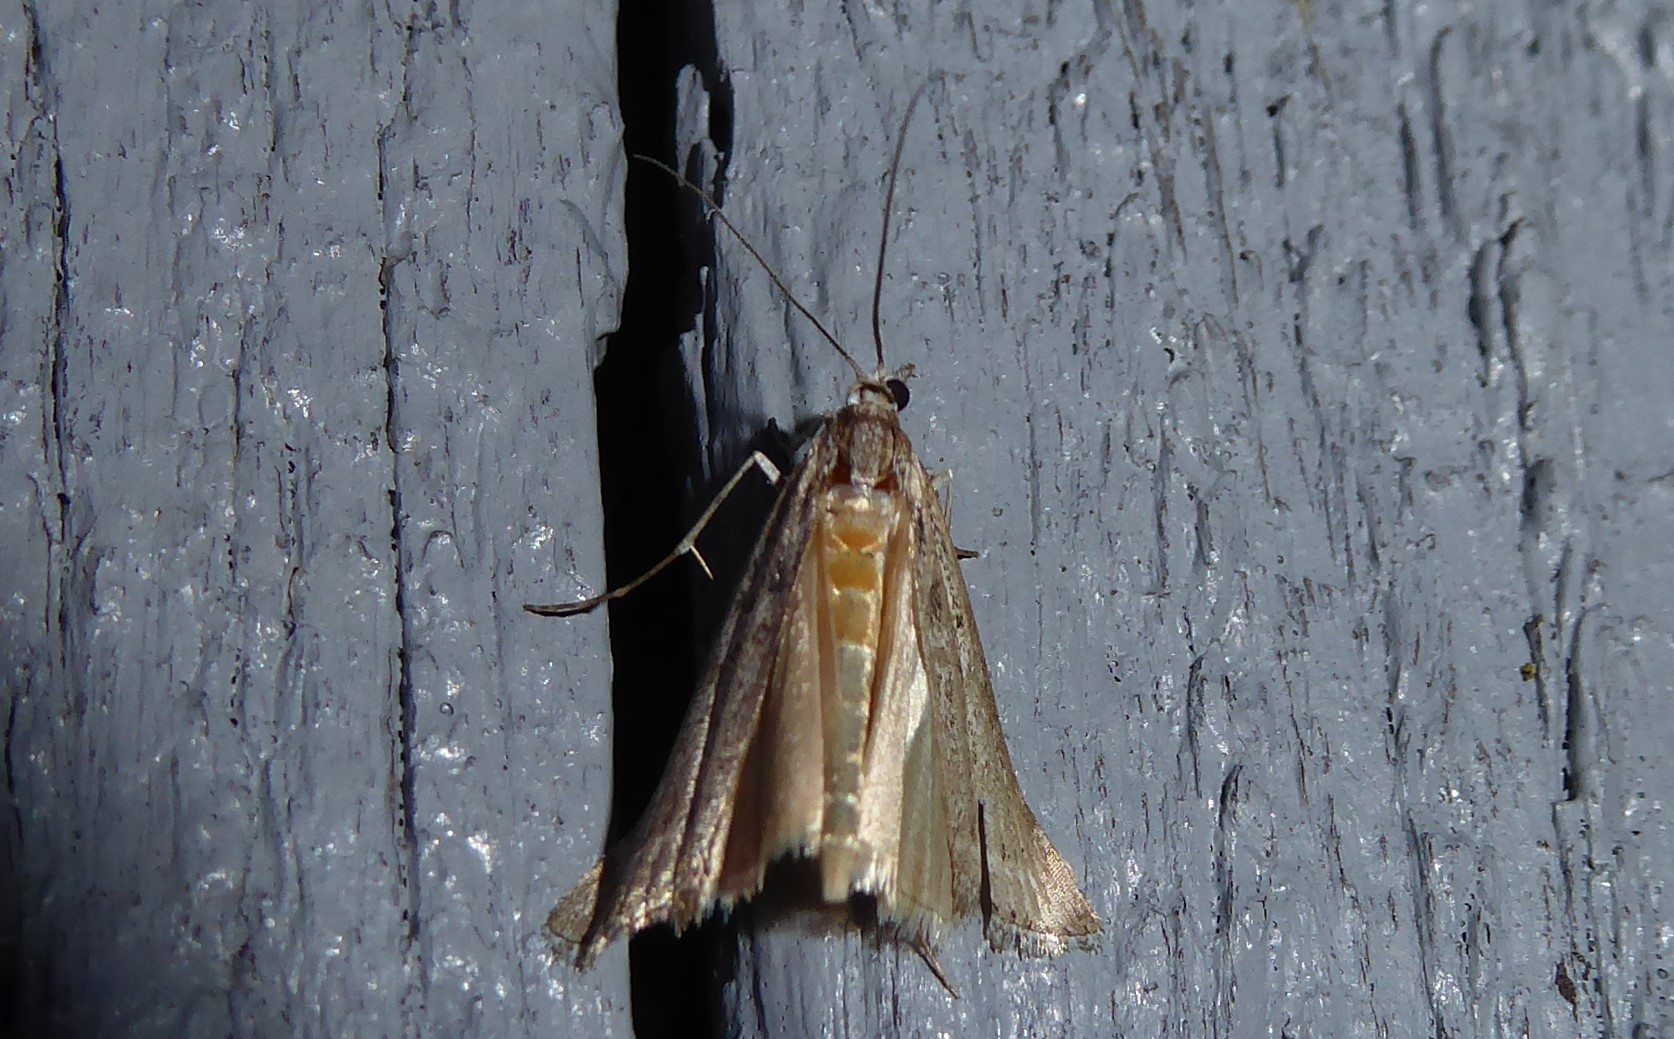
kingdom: Animalia
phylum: Arthropoda
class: Insecta
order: Lepidoptera
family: Crambidae
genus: Orocrambus
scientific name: Orocrambus cyclopicus
